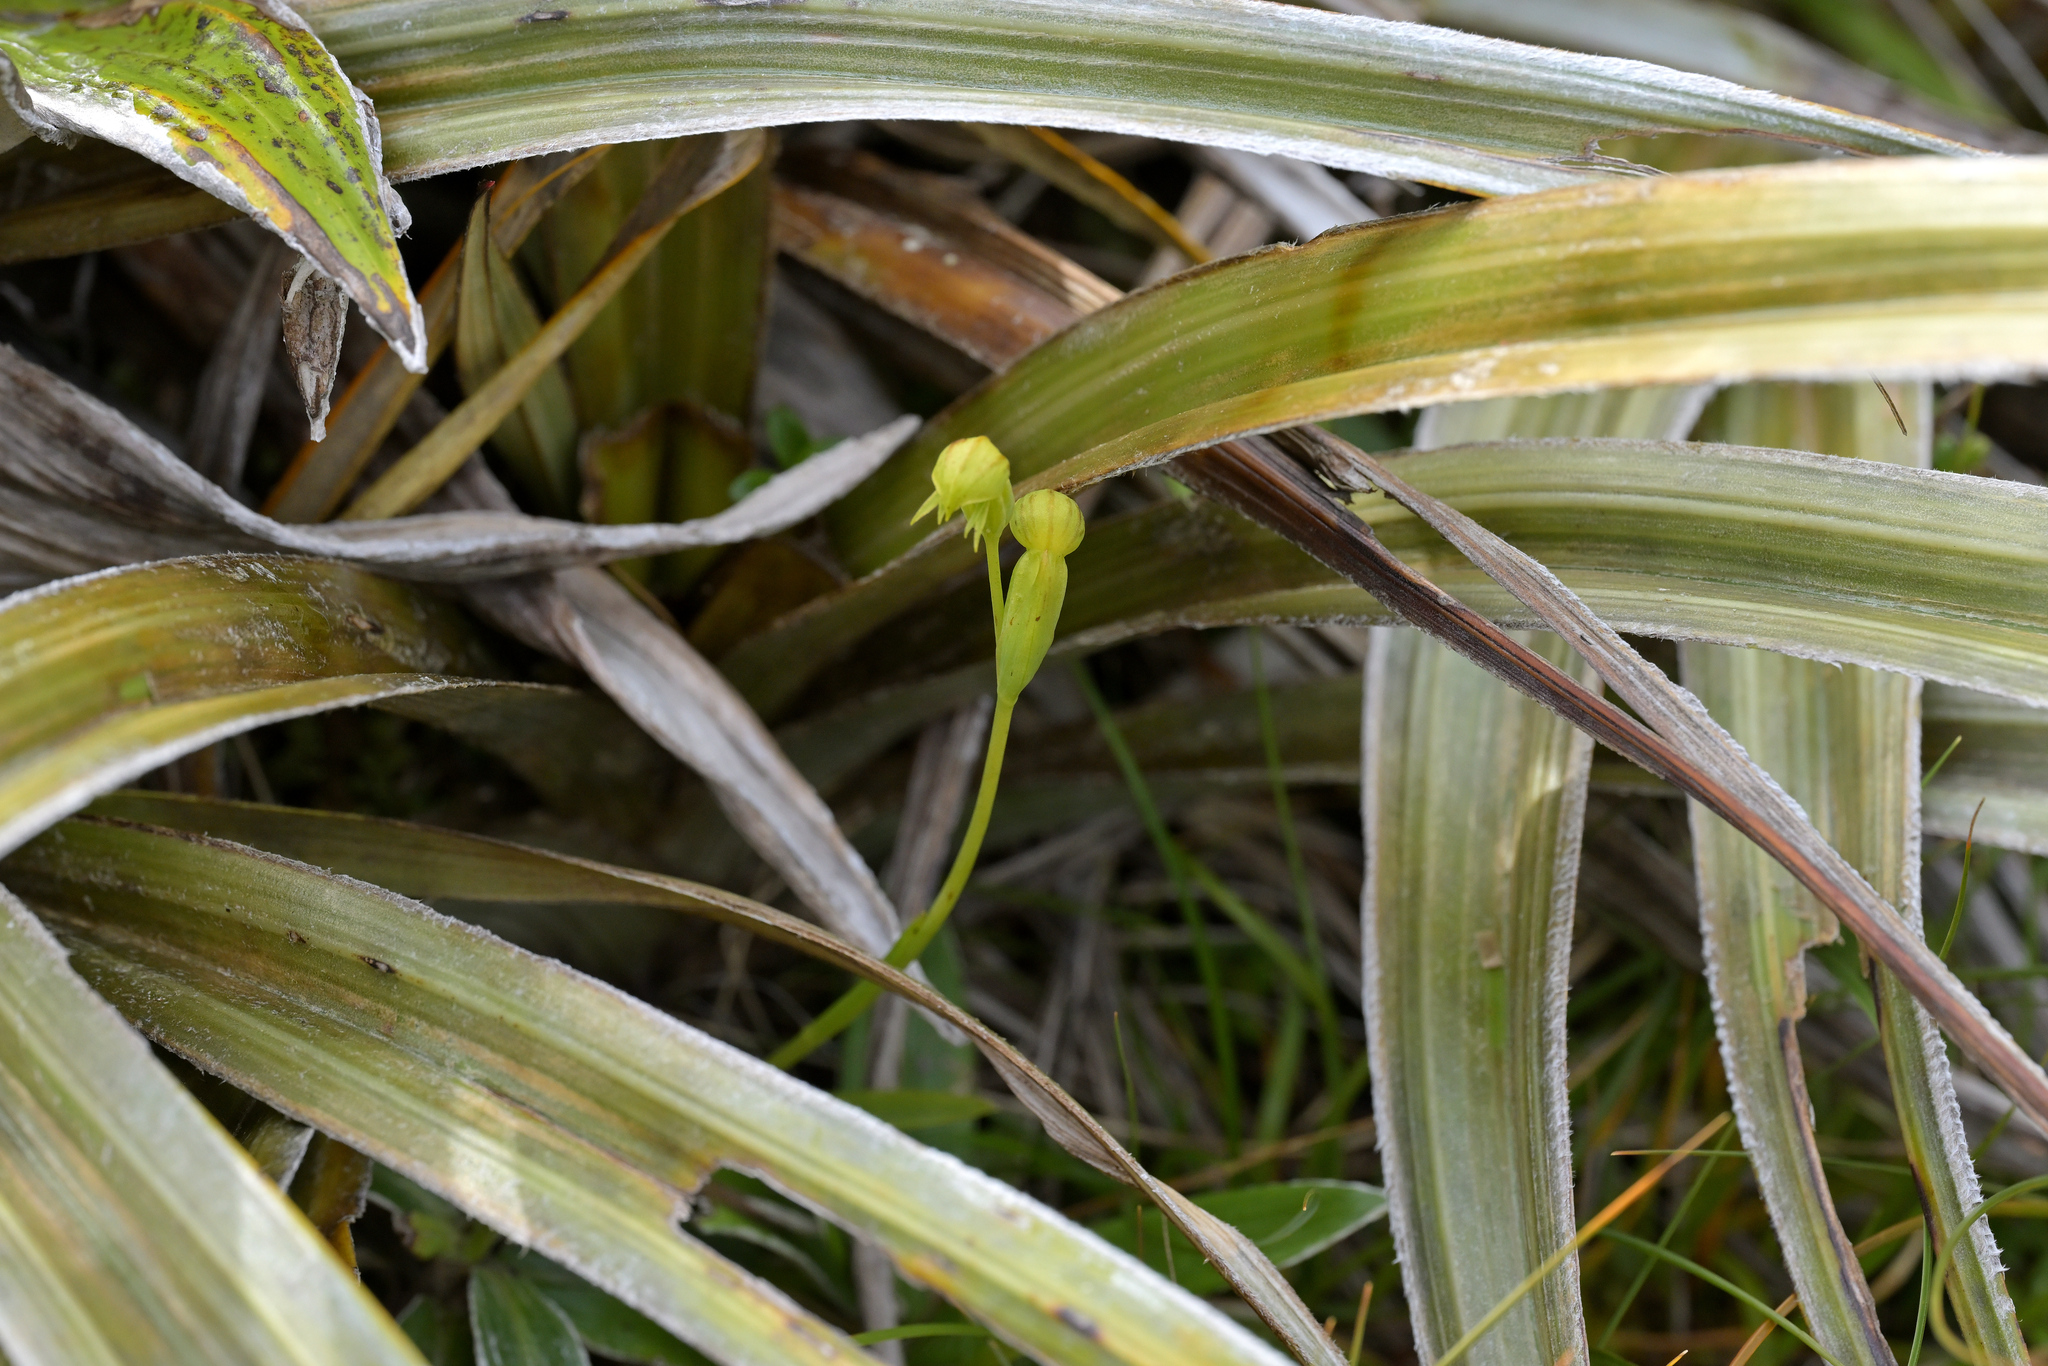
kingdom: Plantae
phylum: Tracheophyta
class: Liliopsida
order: Asparagales
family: Orchidaceae
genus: Waireia
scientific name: Waireia stenopetala
